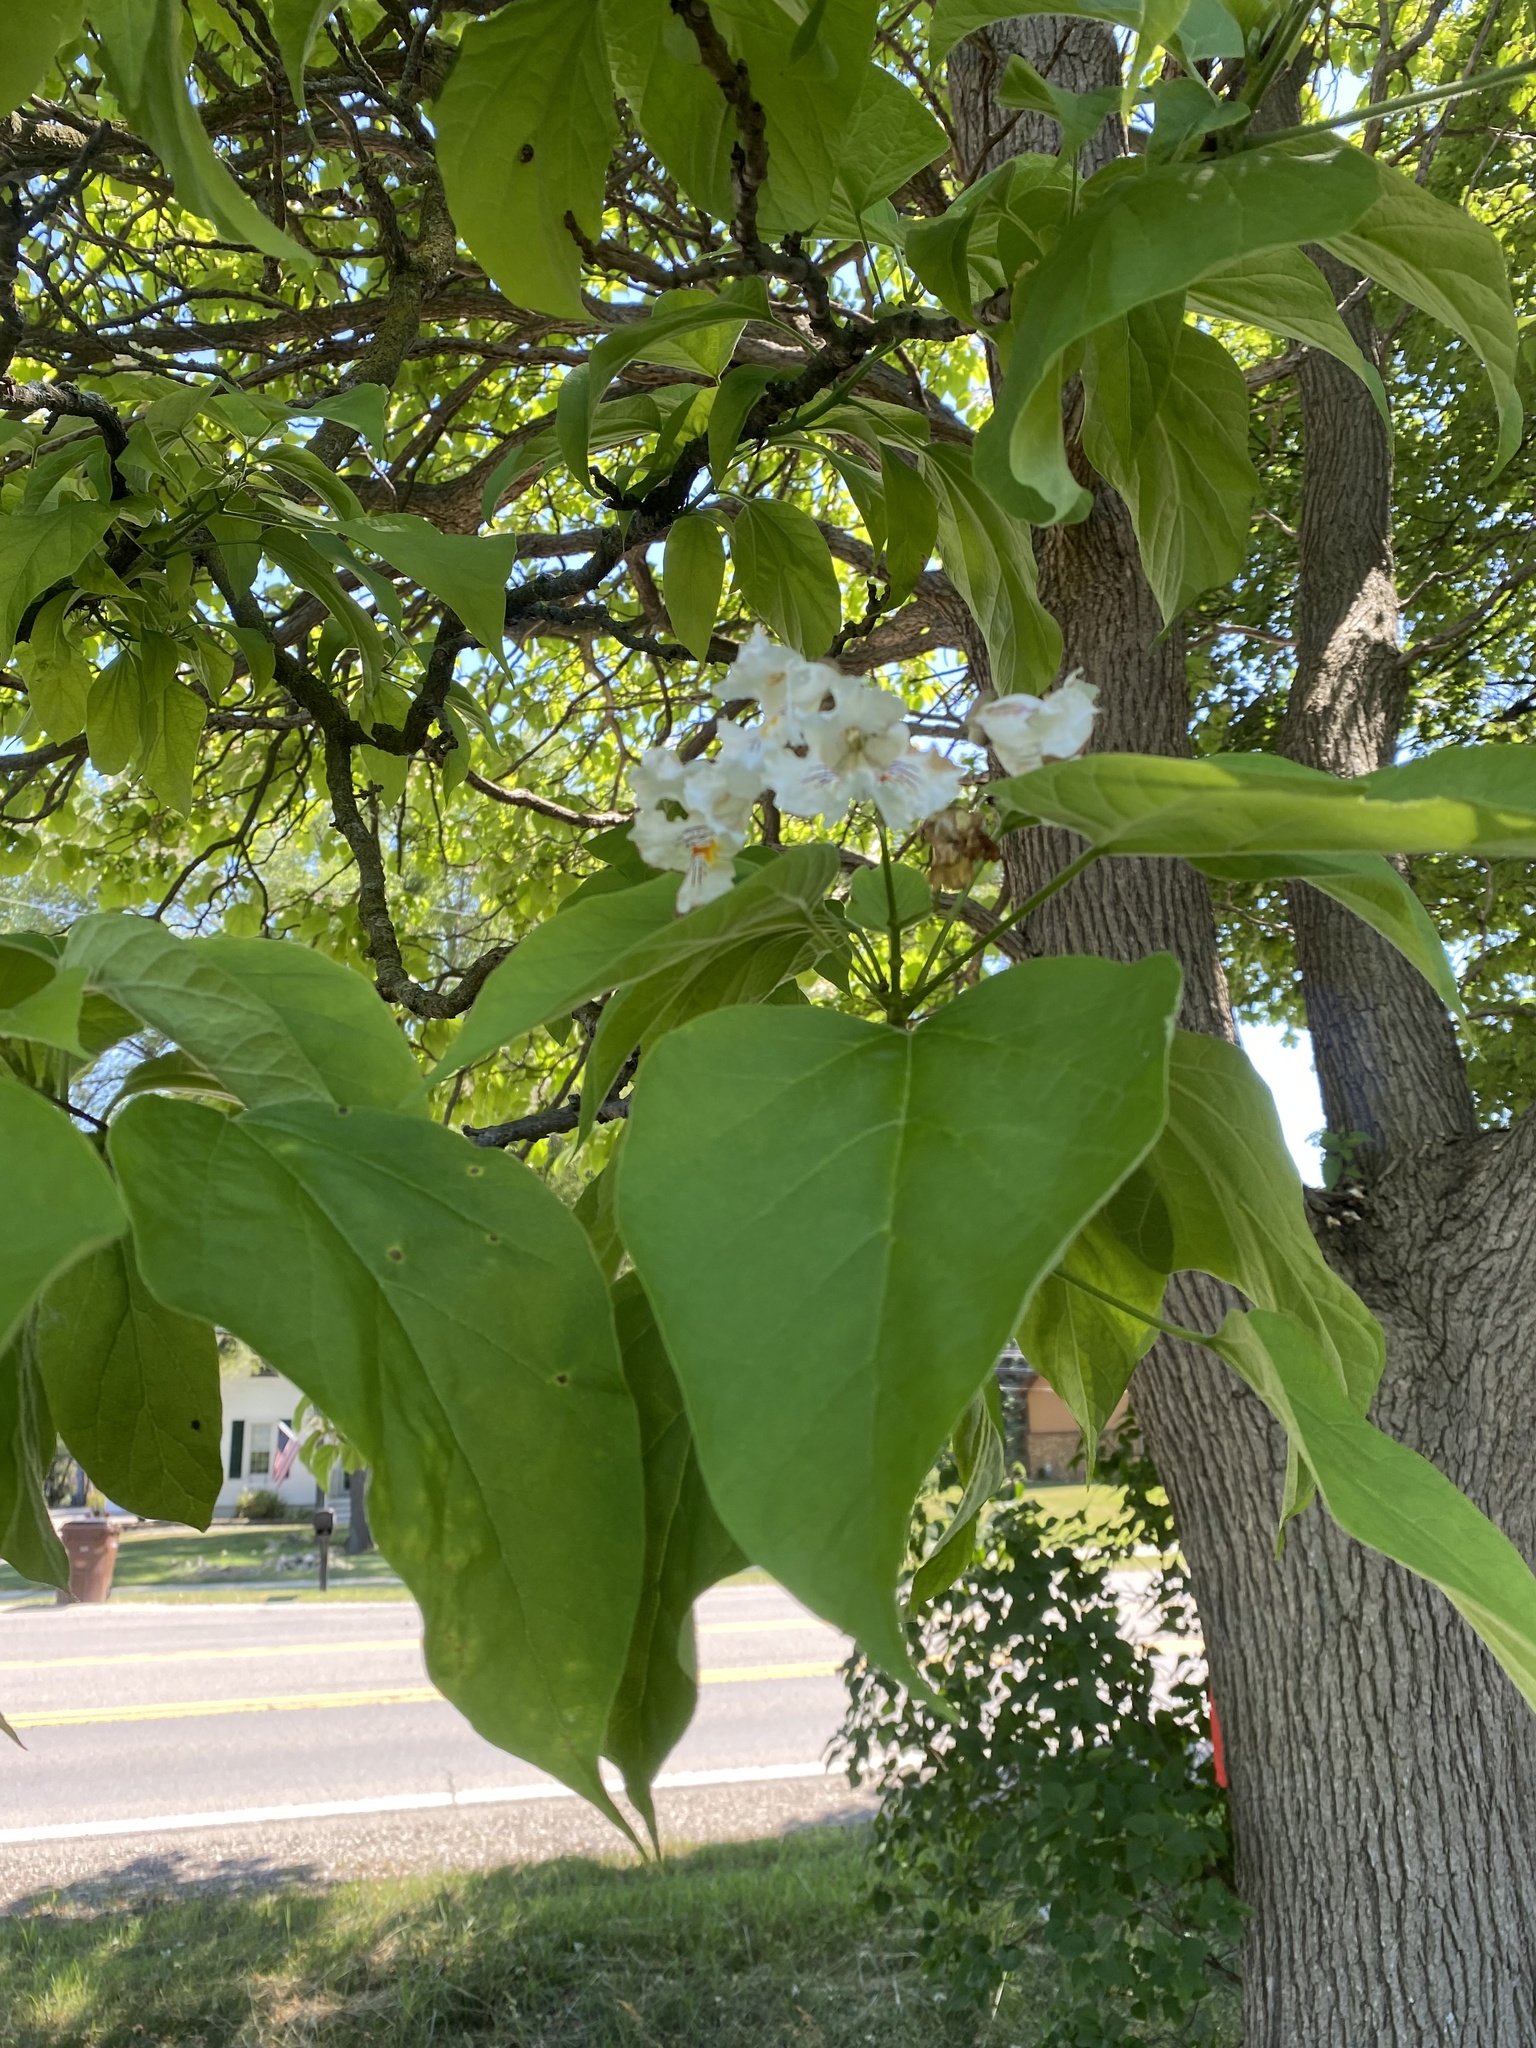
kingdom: Plantae
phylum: Tracheophyta
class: Magnoliopsida
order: Lamiales
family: Bignoniaceae
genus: Catalpa
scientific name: Catalpa speciosa
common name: Northern catalpa
